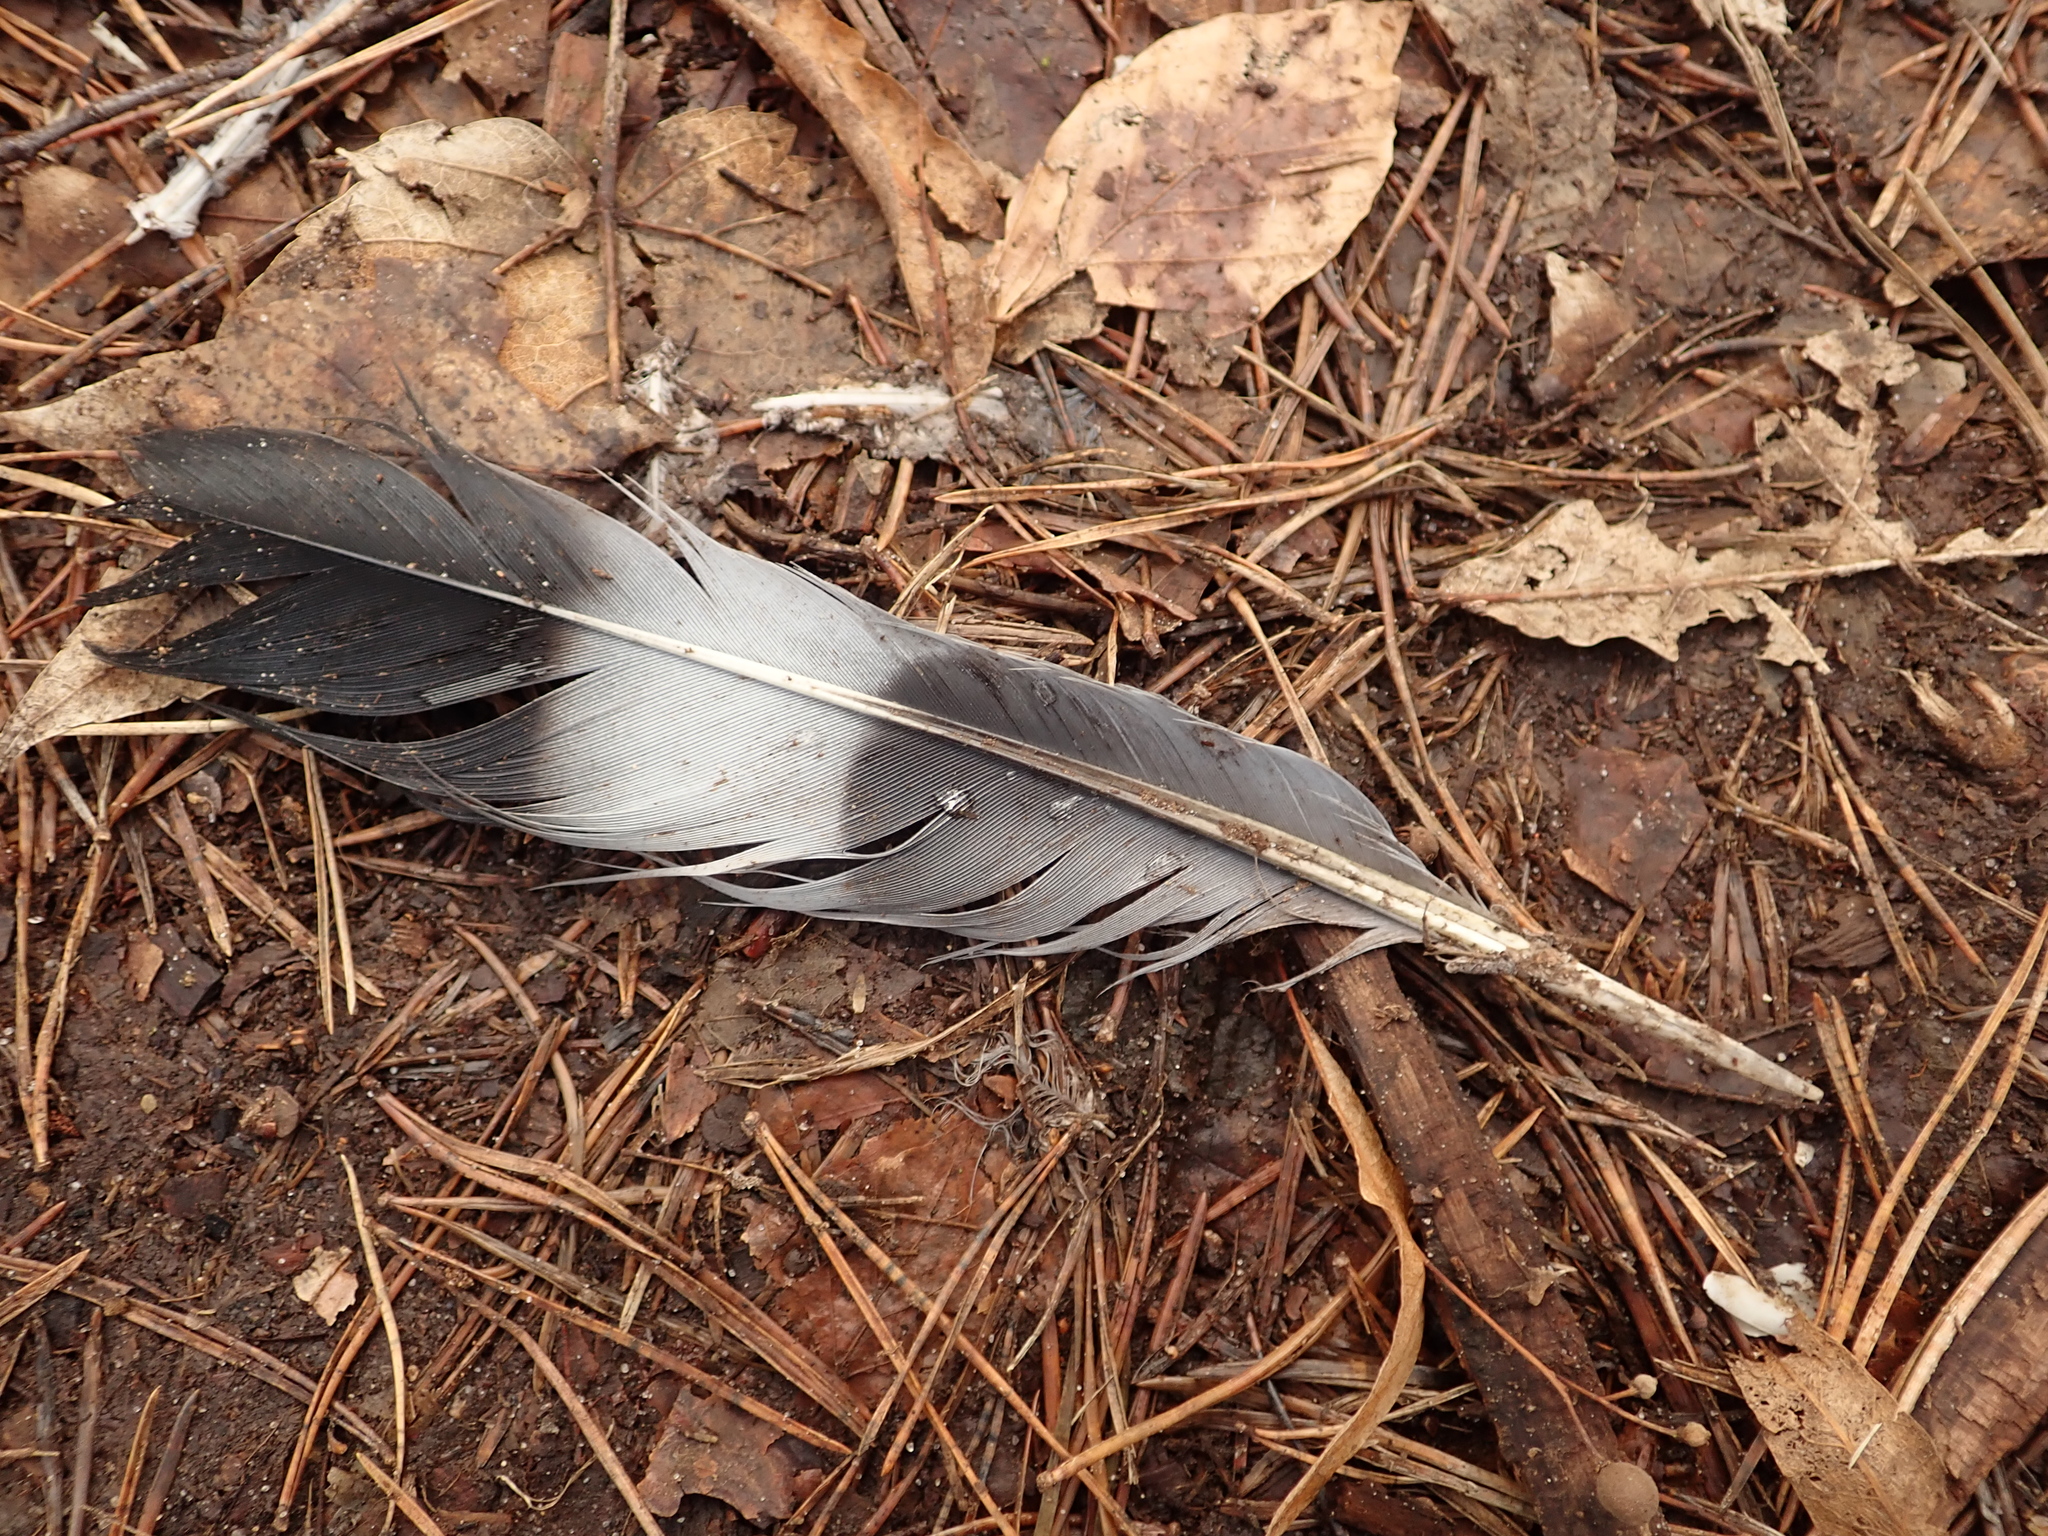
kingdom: Animalia
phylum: Chordata
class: Aves
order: Columbiformes
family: Columbidae
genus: Columba
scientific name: Columba palumbus
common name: Common wood pigeon
